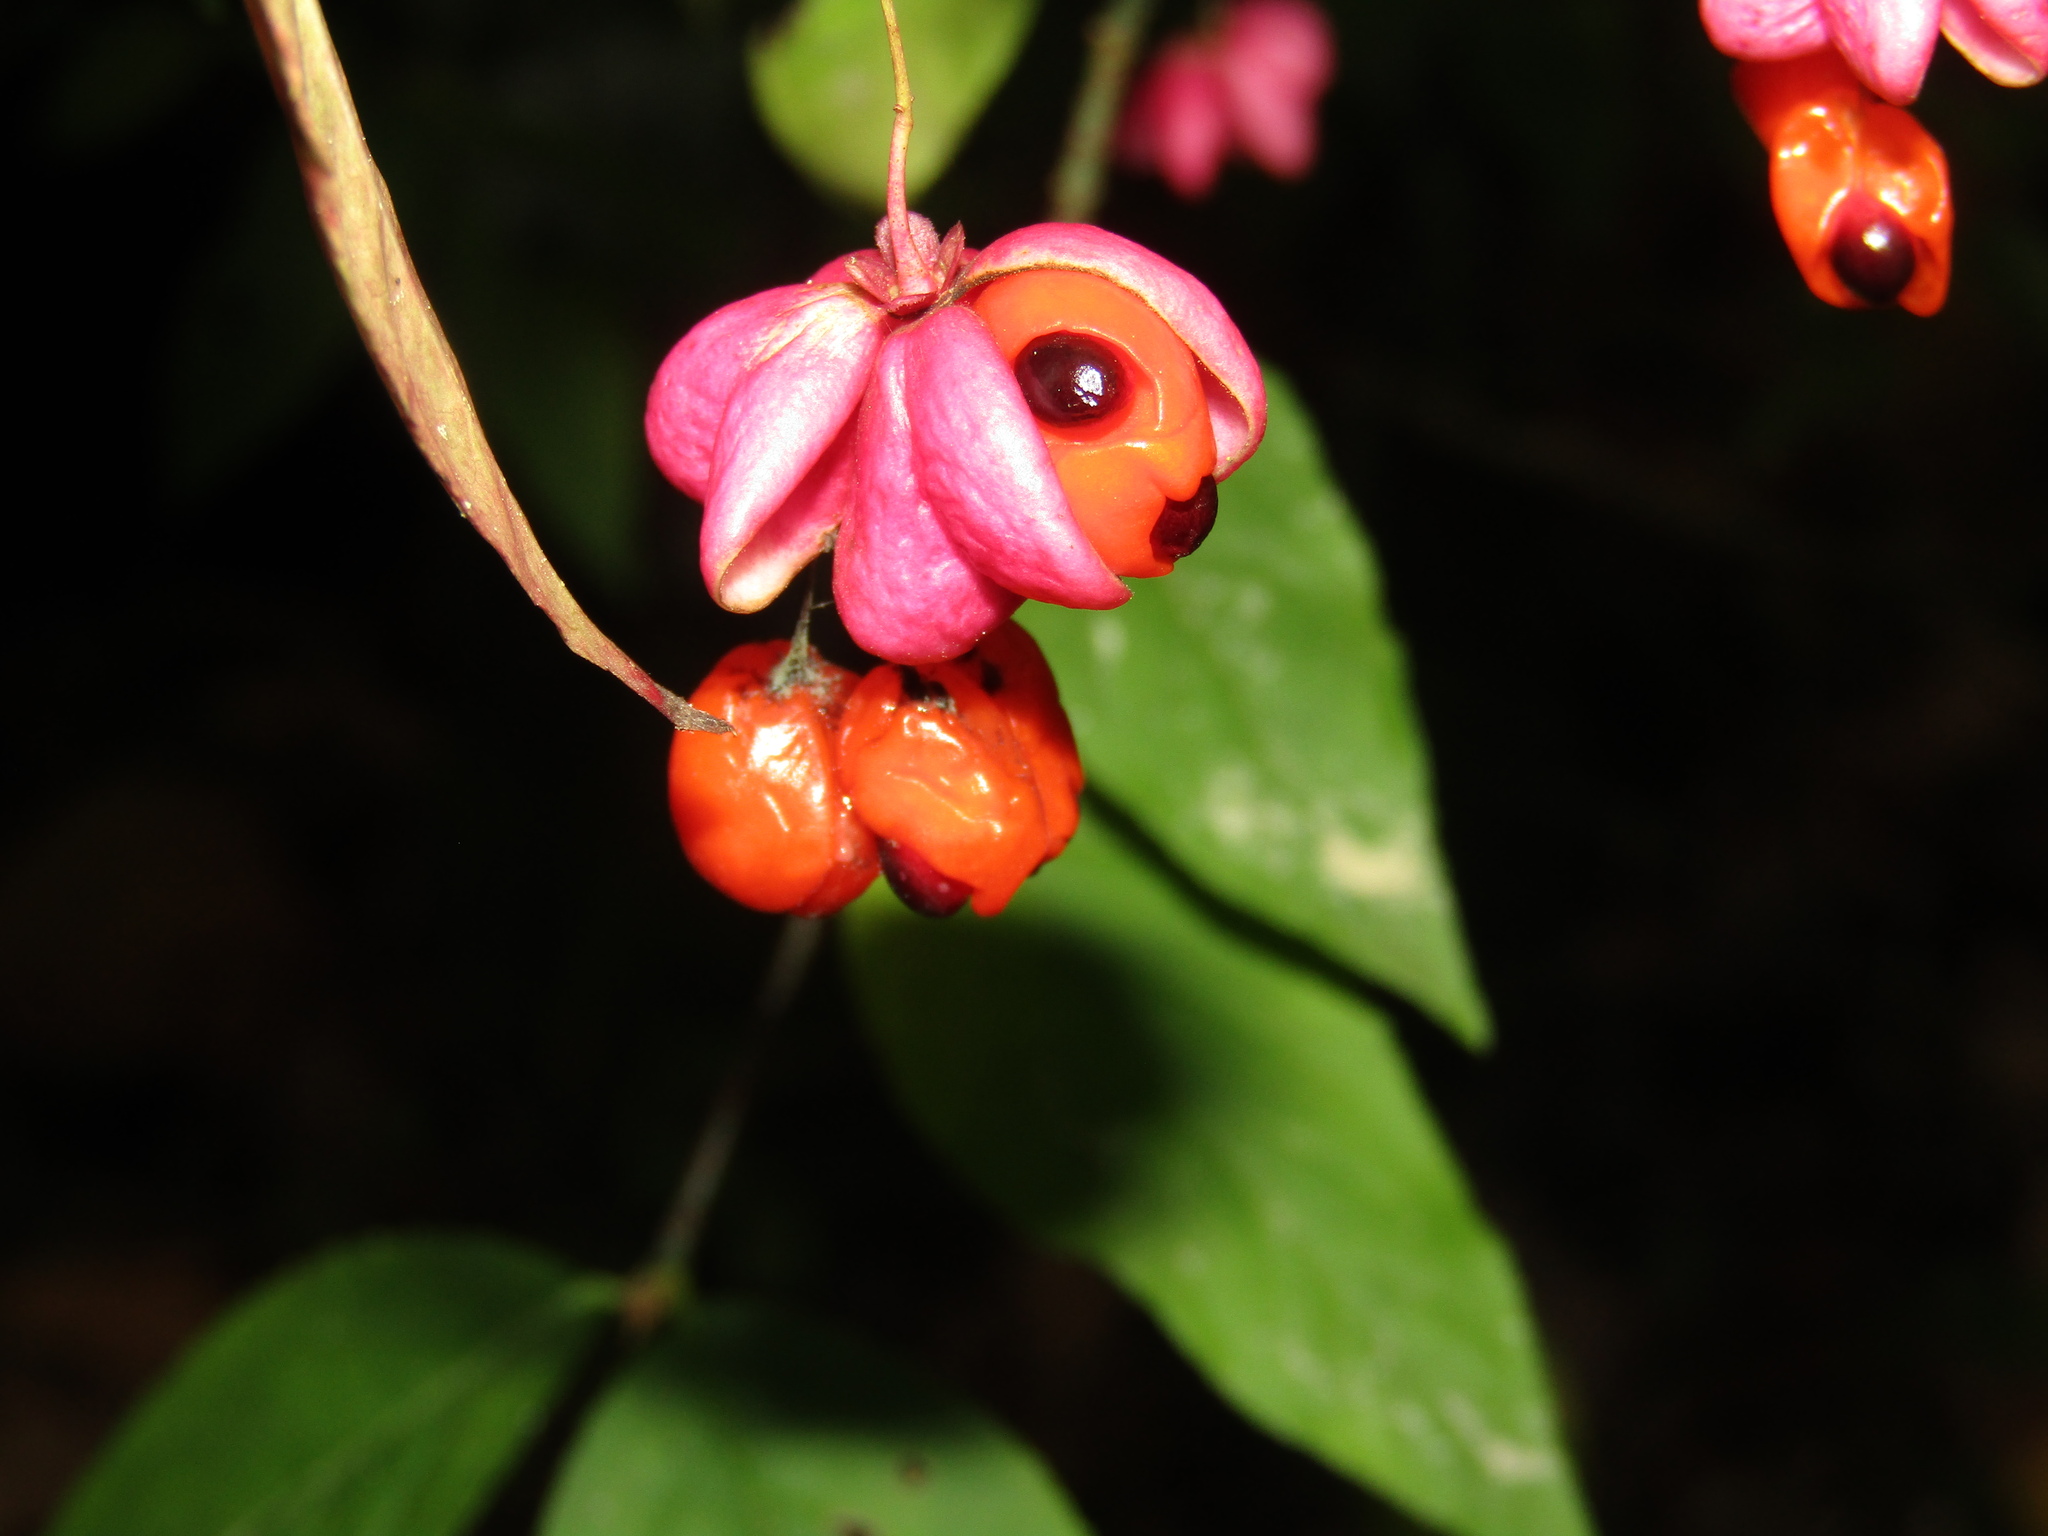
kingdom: Plantae
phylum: Tracheophyta
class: Magnoliopsida
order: Celastrales
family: Celastraceae
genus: Euonymus
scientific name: Euonymus verrucosus
